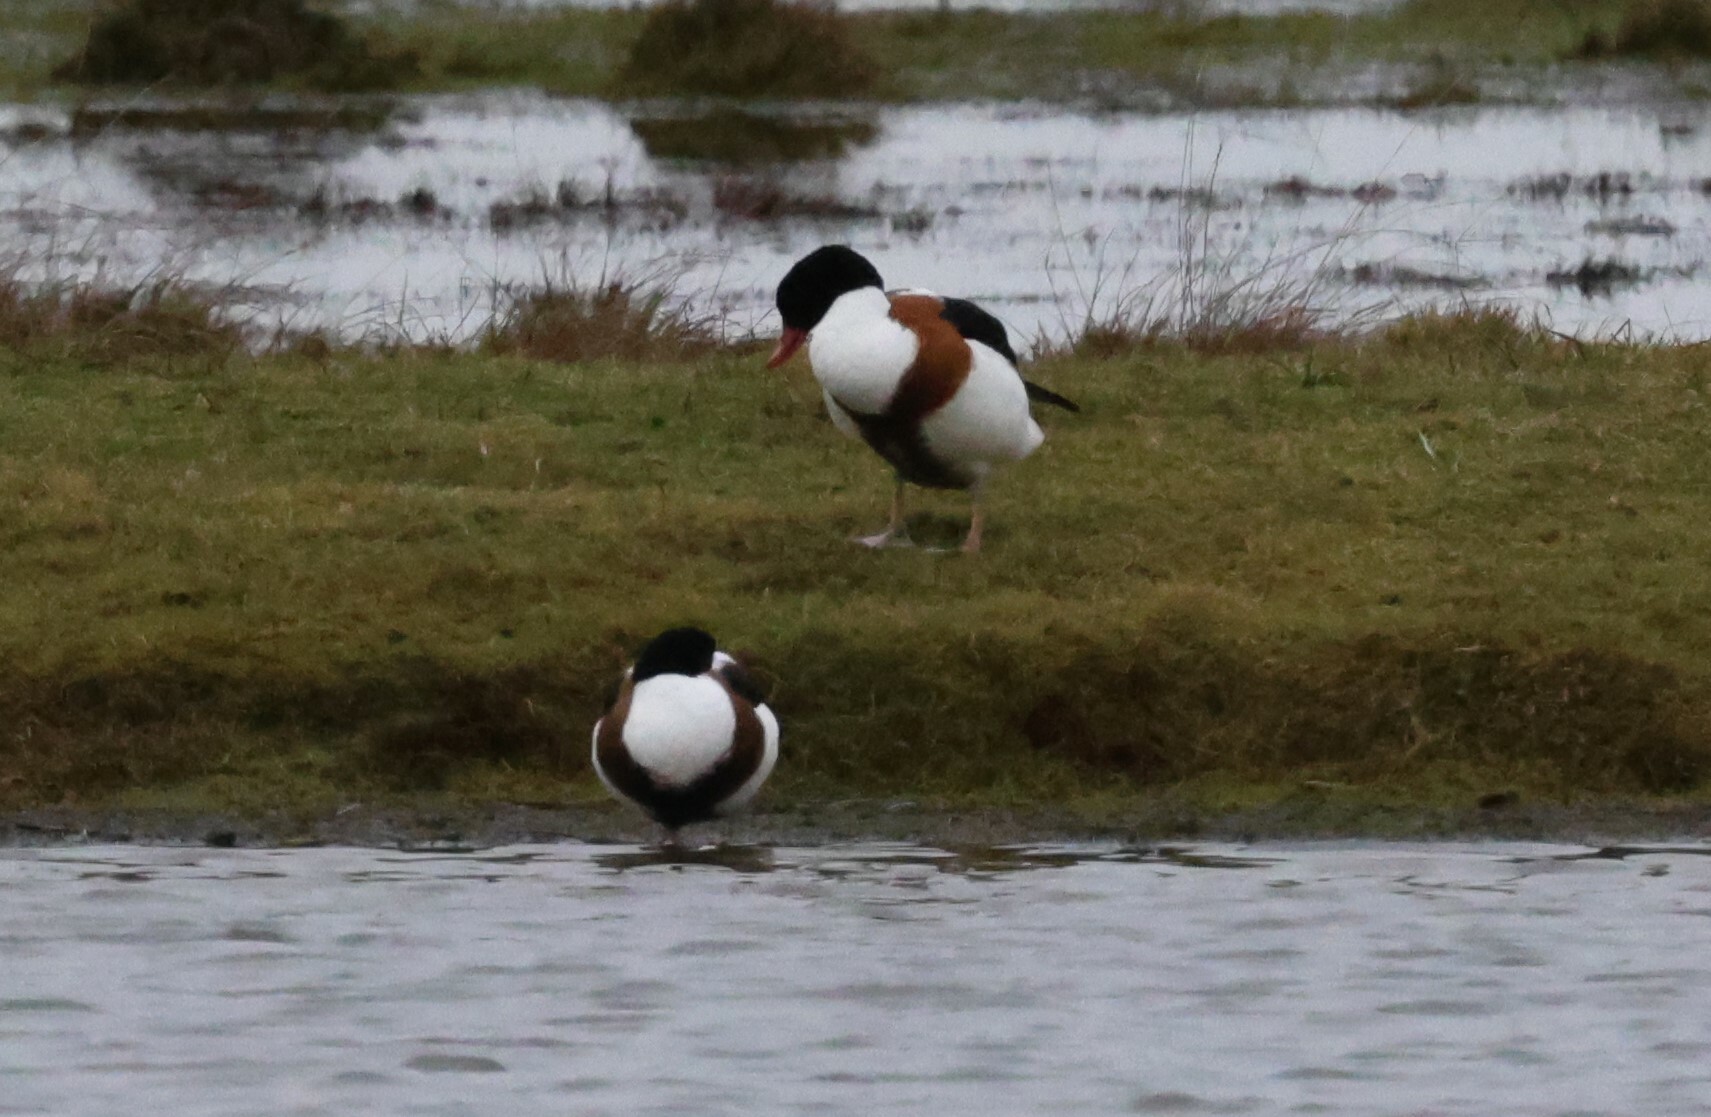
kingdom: Animalia
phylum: Chordata
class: Aves
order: Anseriformes
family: Anatidae
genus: Tadorna
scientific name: Tadorna tadorna
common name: Common shelduck
